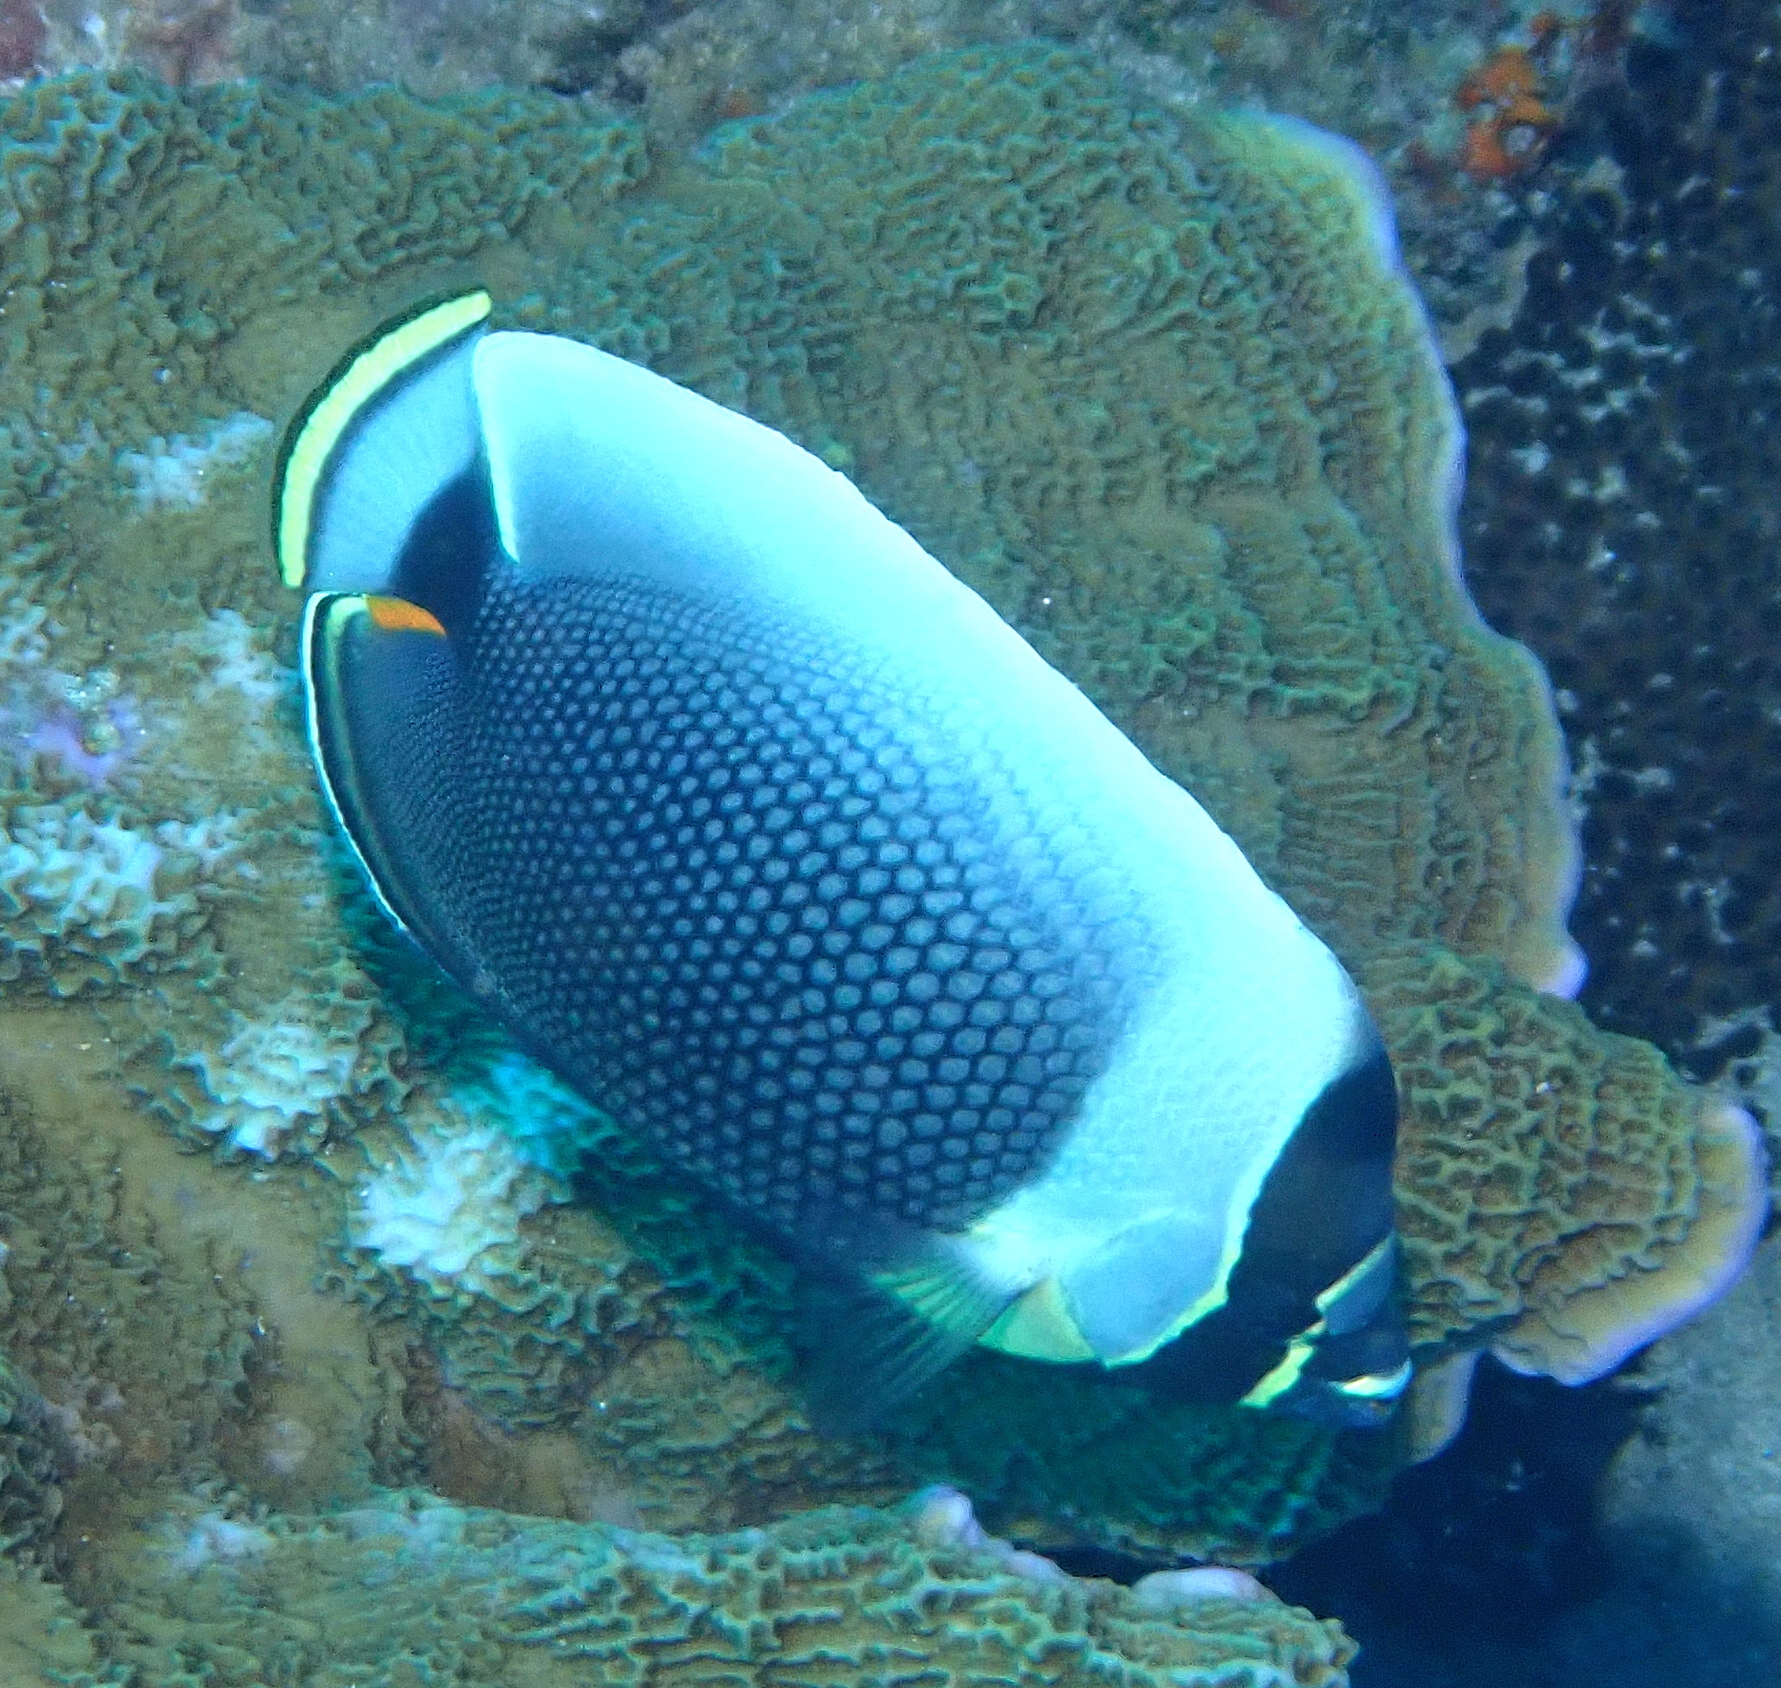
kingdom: Animalia
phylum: Chordata
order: Perciformes
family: Chaetodontidae
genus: Chaetodon
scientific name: Chaetodon reticulatus
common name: Reticulated butterflyfish
